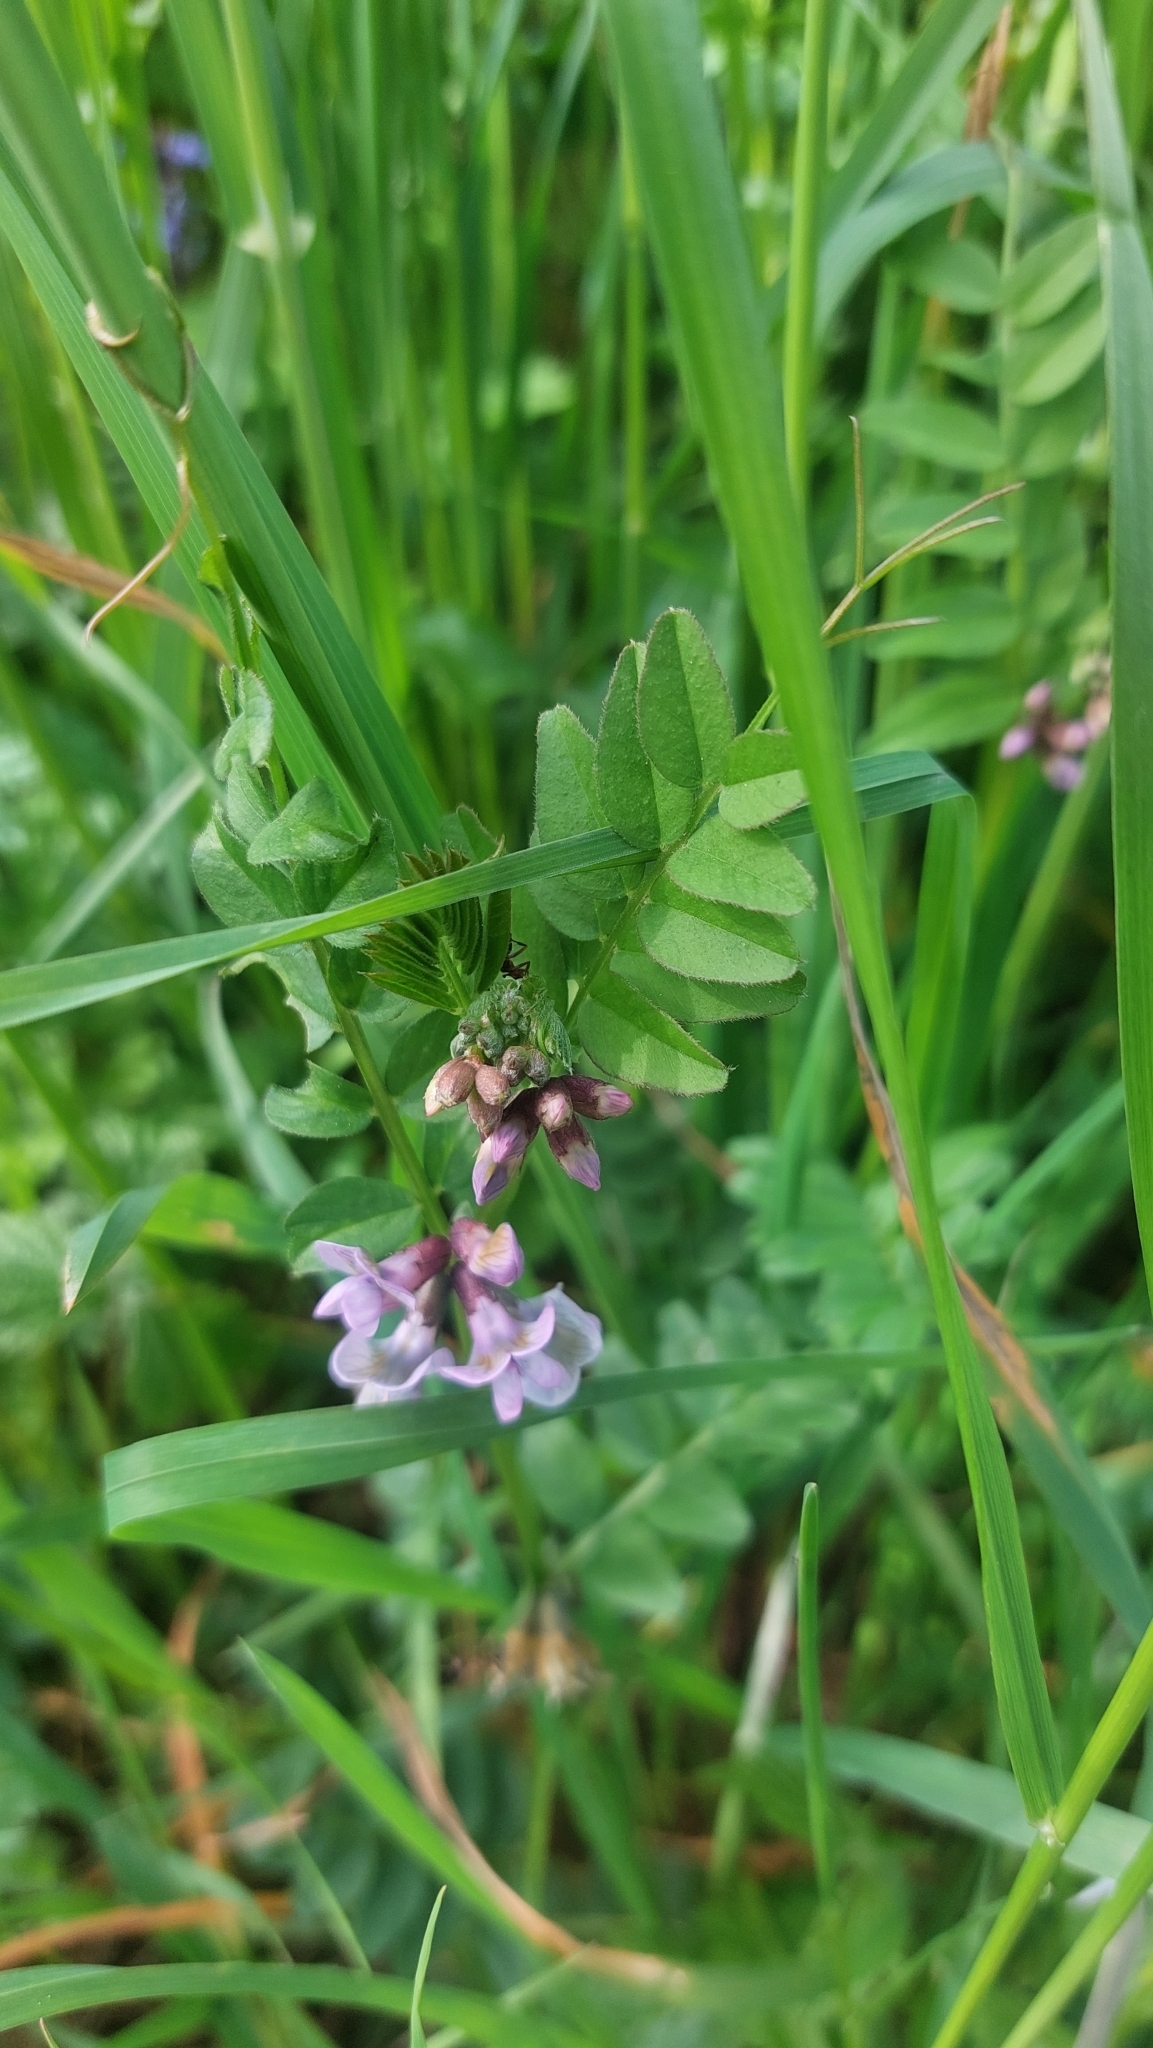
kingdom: Plantae
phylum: Tracheophyta
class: Magnoliopsida
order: Fabales
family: Fabaceae
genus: Vicia
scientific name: Vicia sepium
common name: Bush vetch
